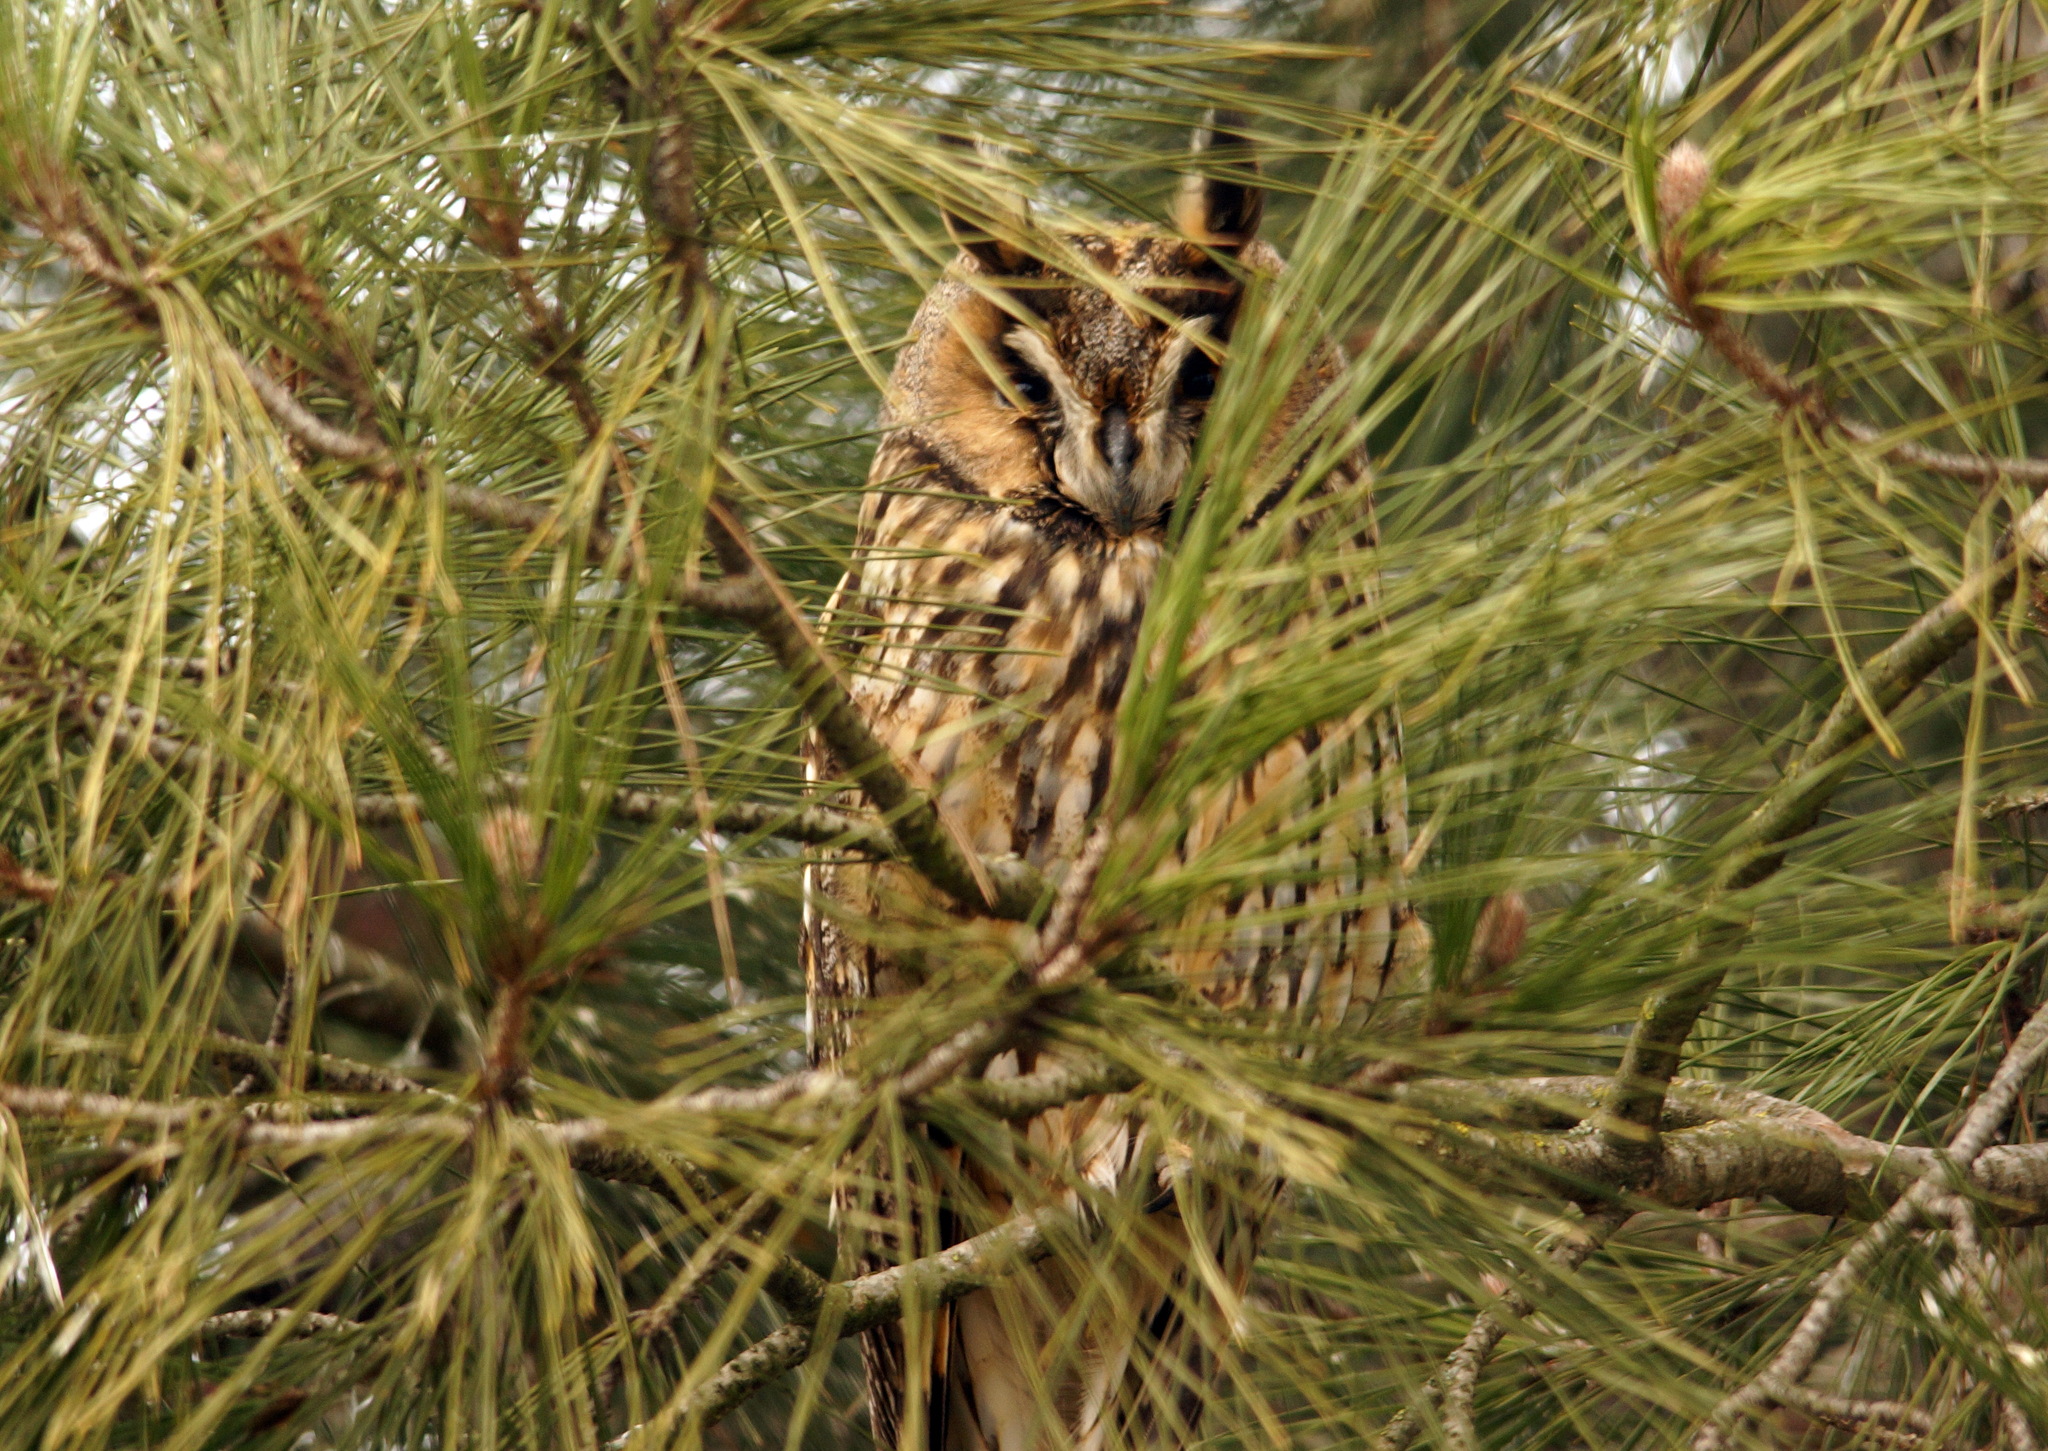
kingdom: Animalia
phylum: Chordata
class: Aves
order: Strigiformes
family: Strigidae
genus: Asio
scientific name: Asio otus
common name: Long-eared owl
